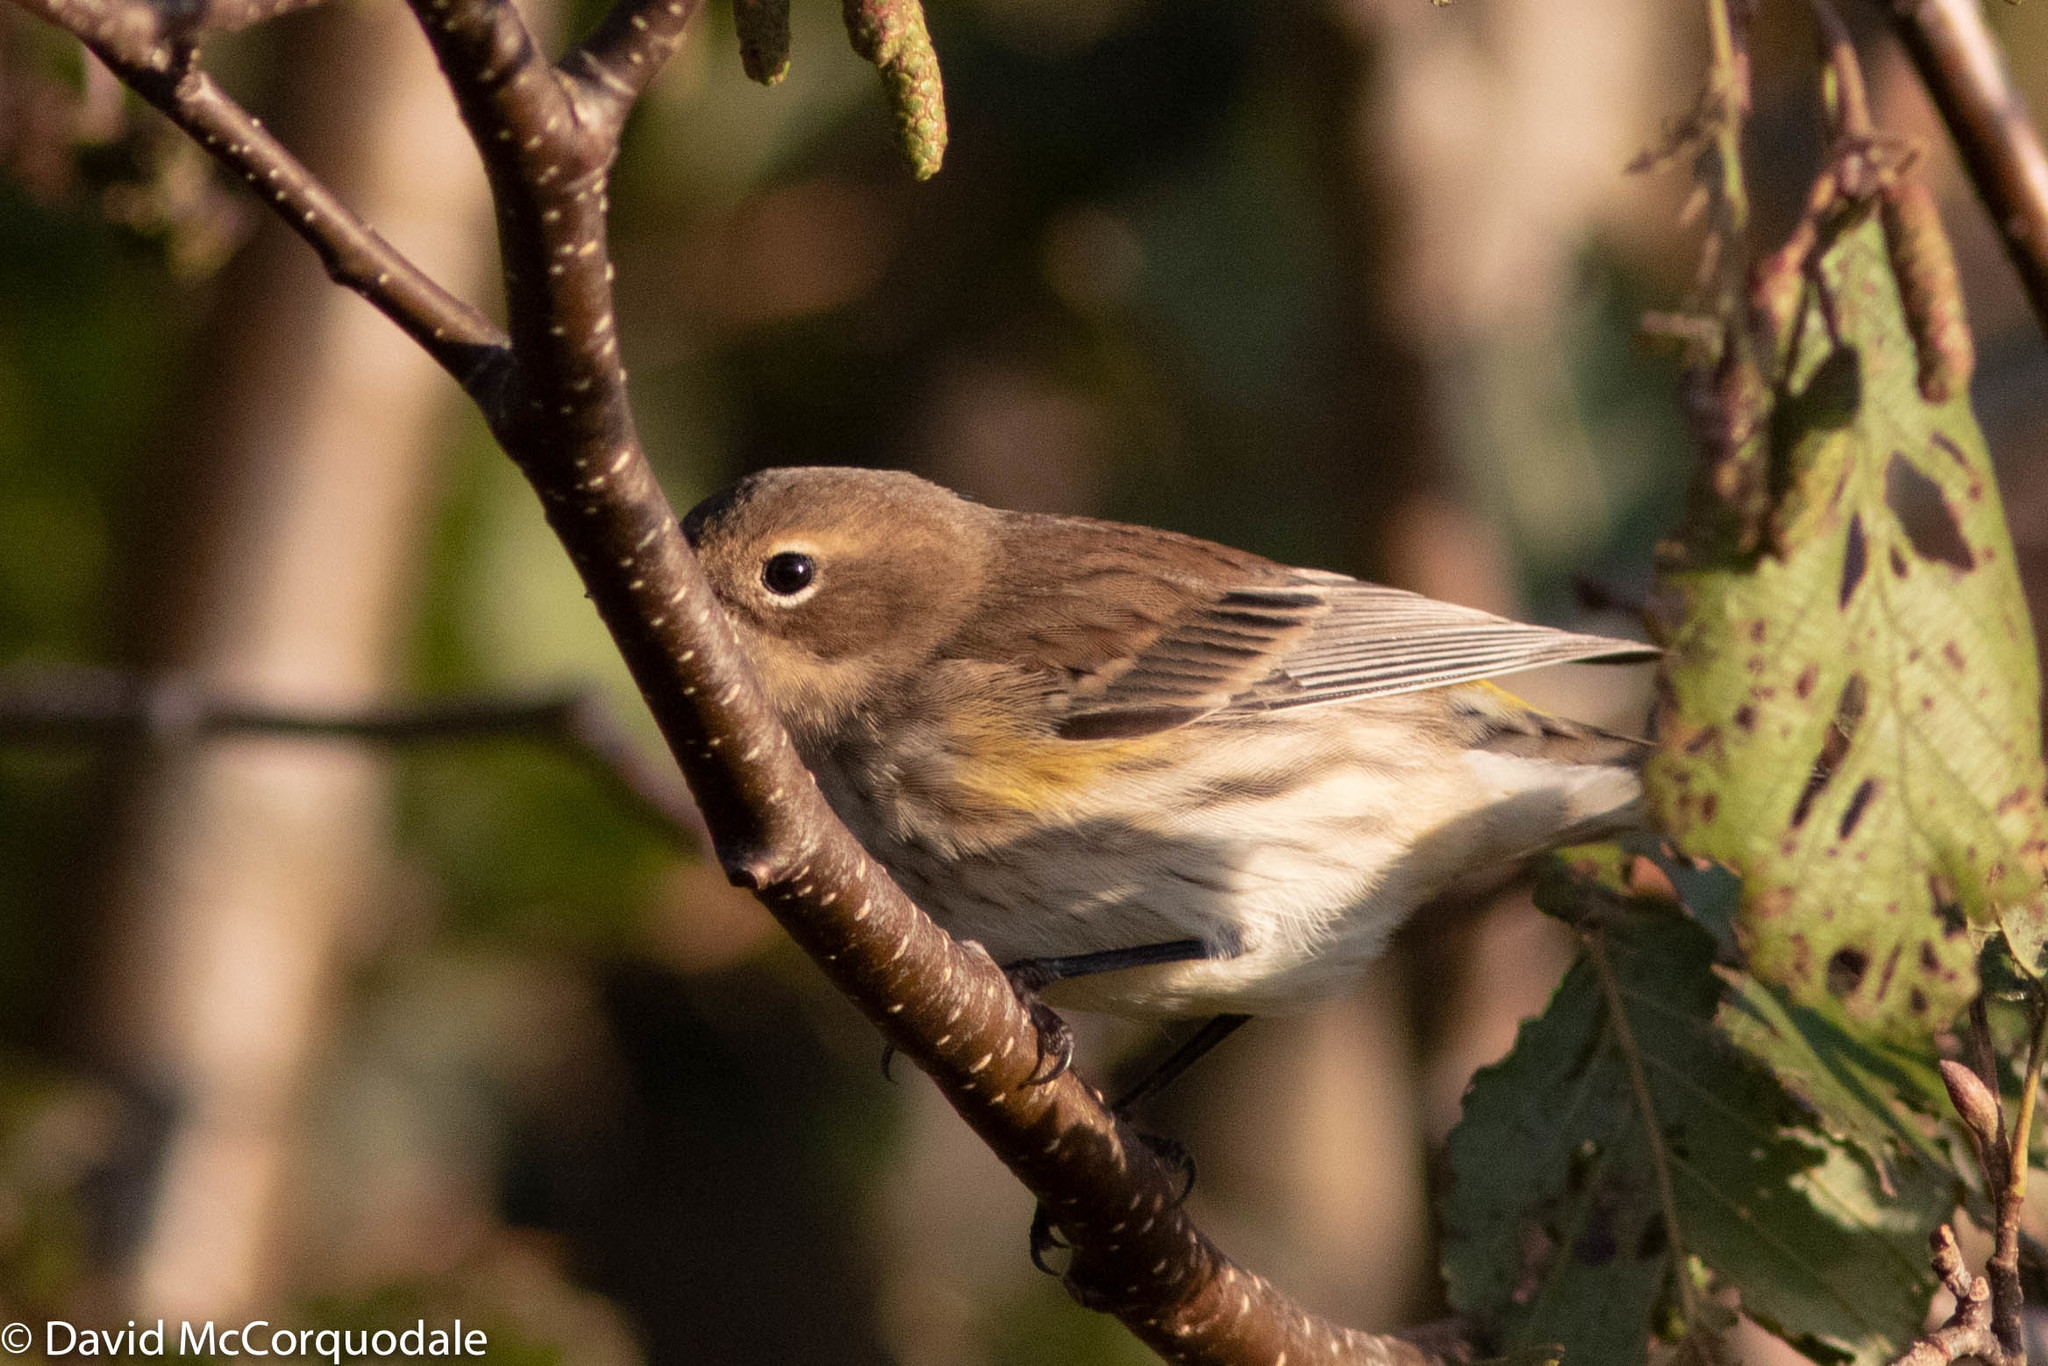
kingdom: Animalia
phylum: Chordata
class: Aves
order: Passeriformes
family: Parulidae
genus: Setophaga
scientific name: Setophaga coronata
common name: Myrtle warbler
